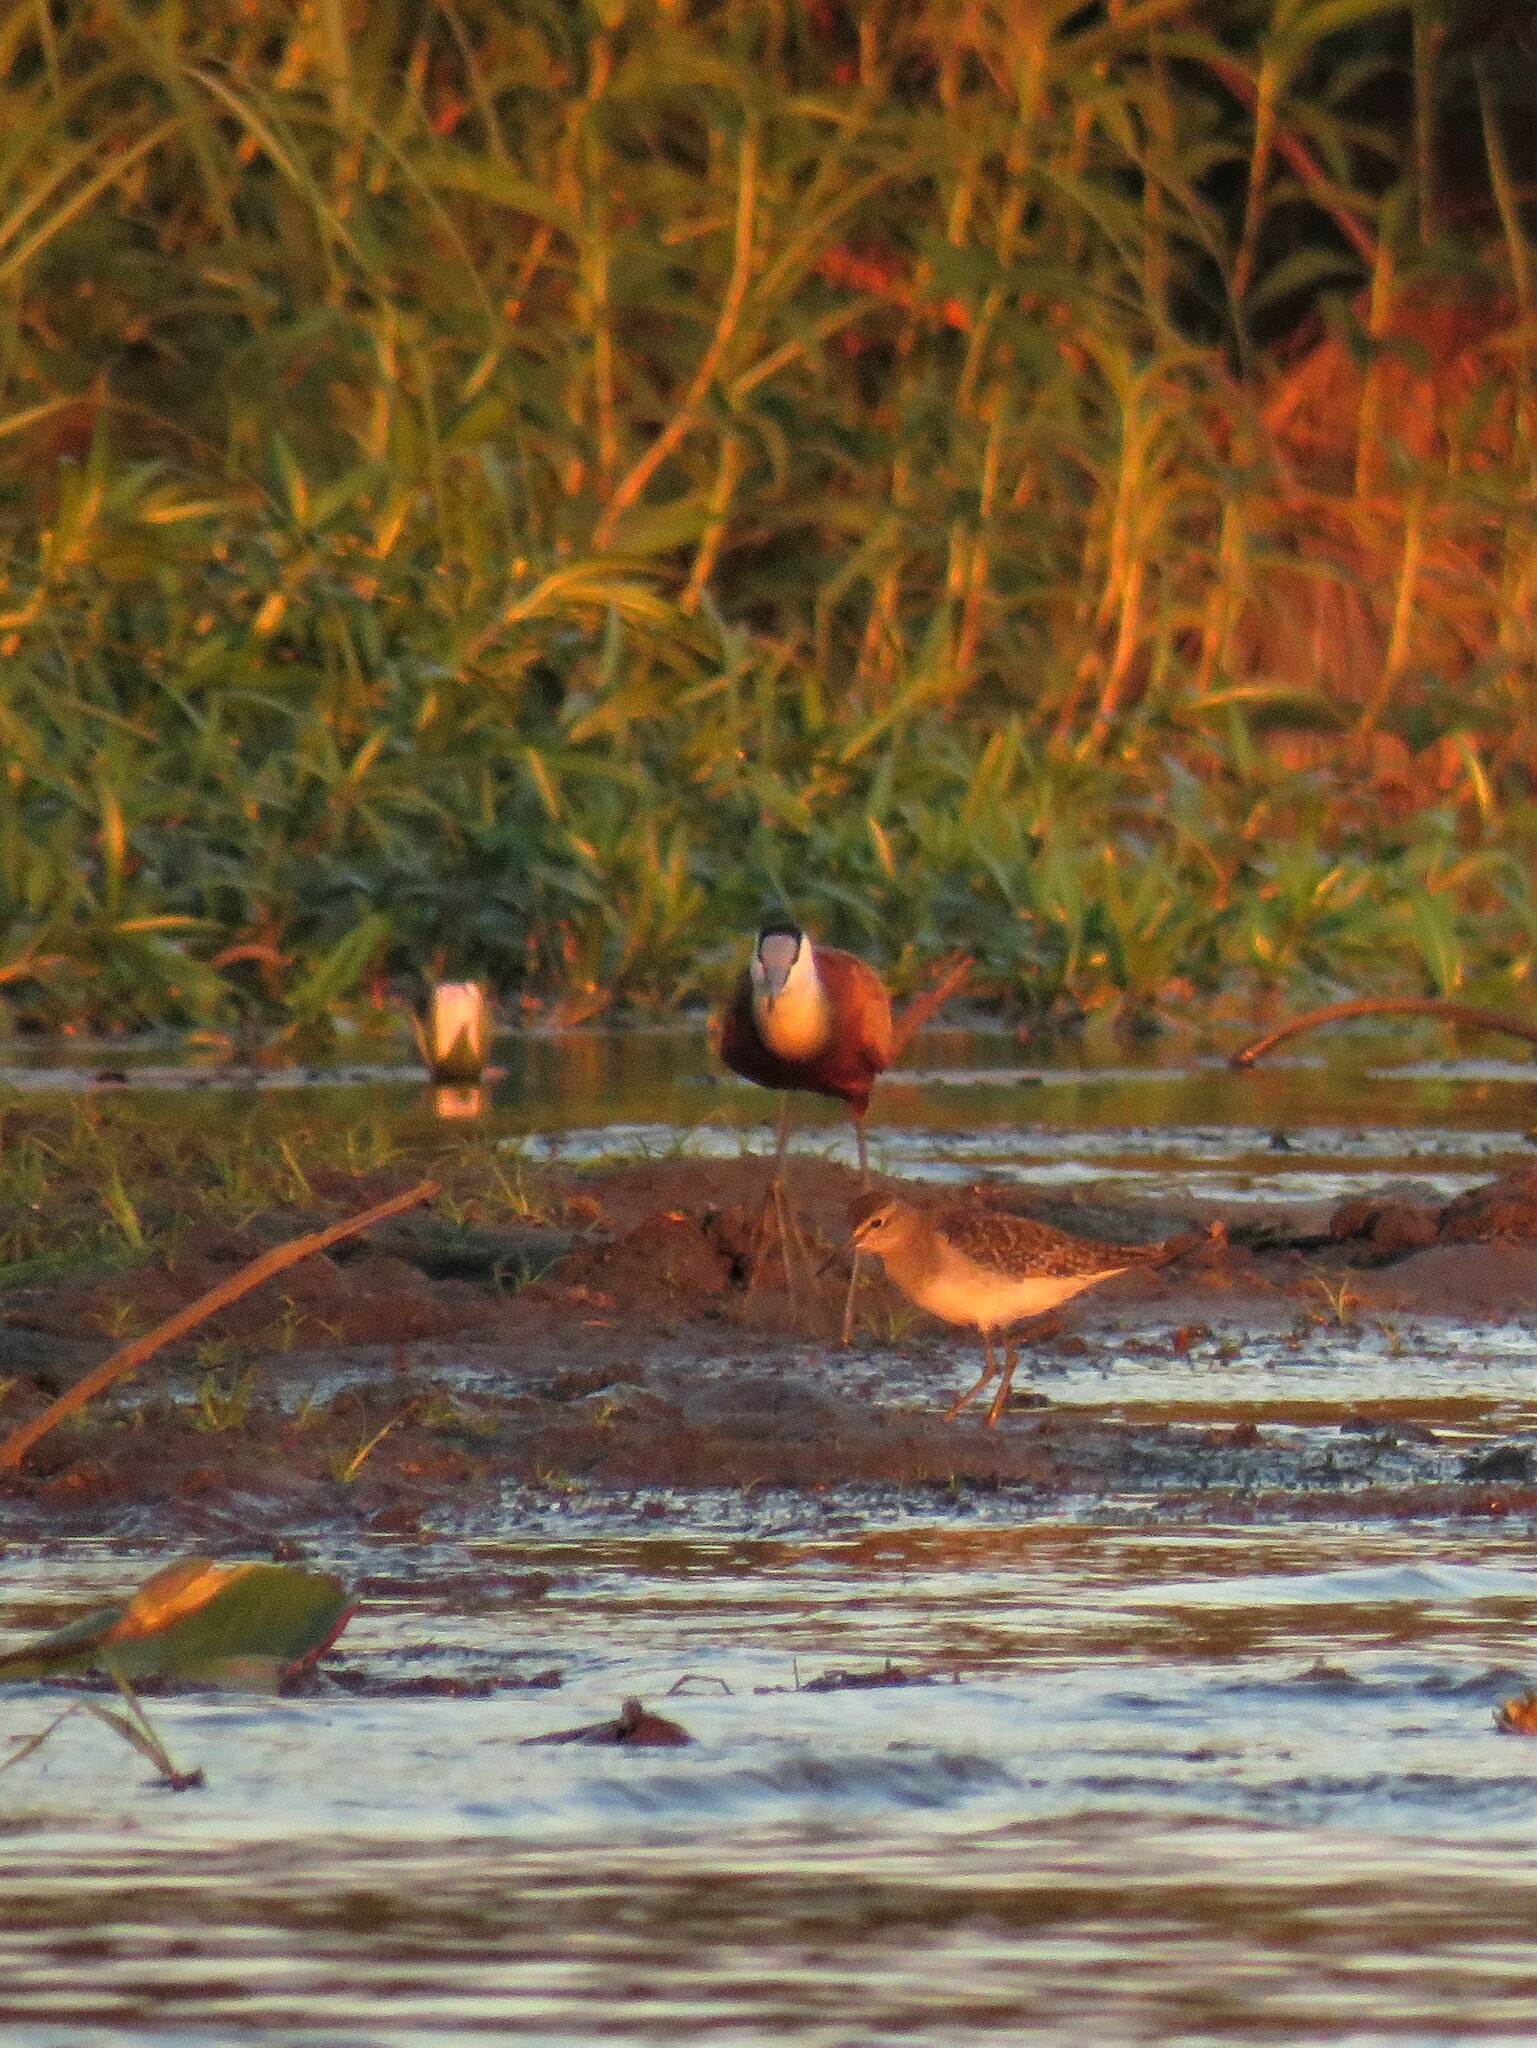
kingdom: Animalia
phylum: Chordata
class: Aves
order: Charadriiformes
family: Jacanidae
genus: Actophilornis
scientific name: Actophilornis africanus
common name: African jacana
